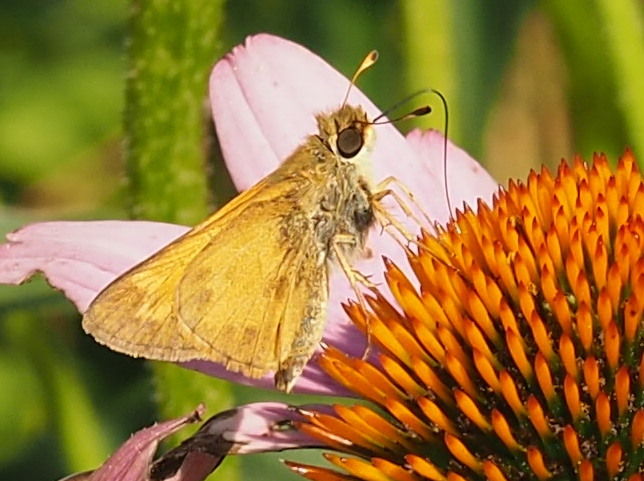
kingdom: Animalia
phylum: Arthropoda
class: Insecta
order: Lepidoptera
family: Hesperiidae
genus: Atalopedes
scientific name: Atalopedes
